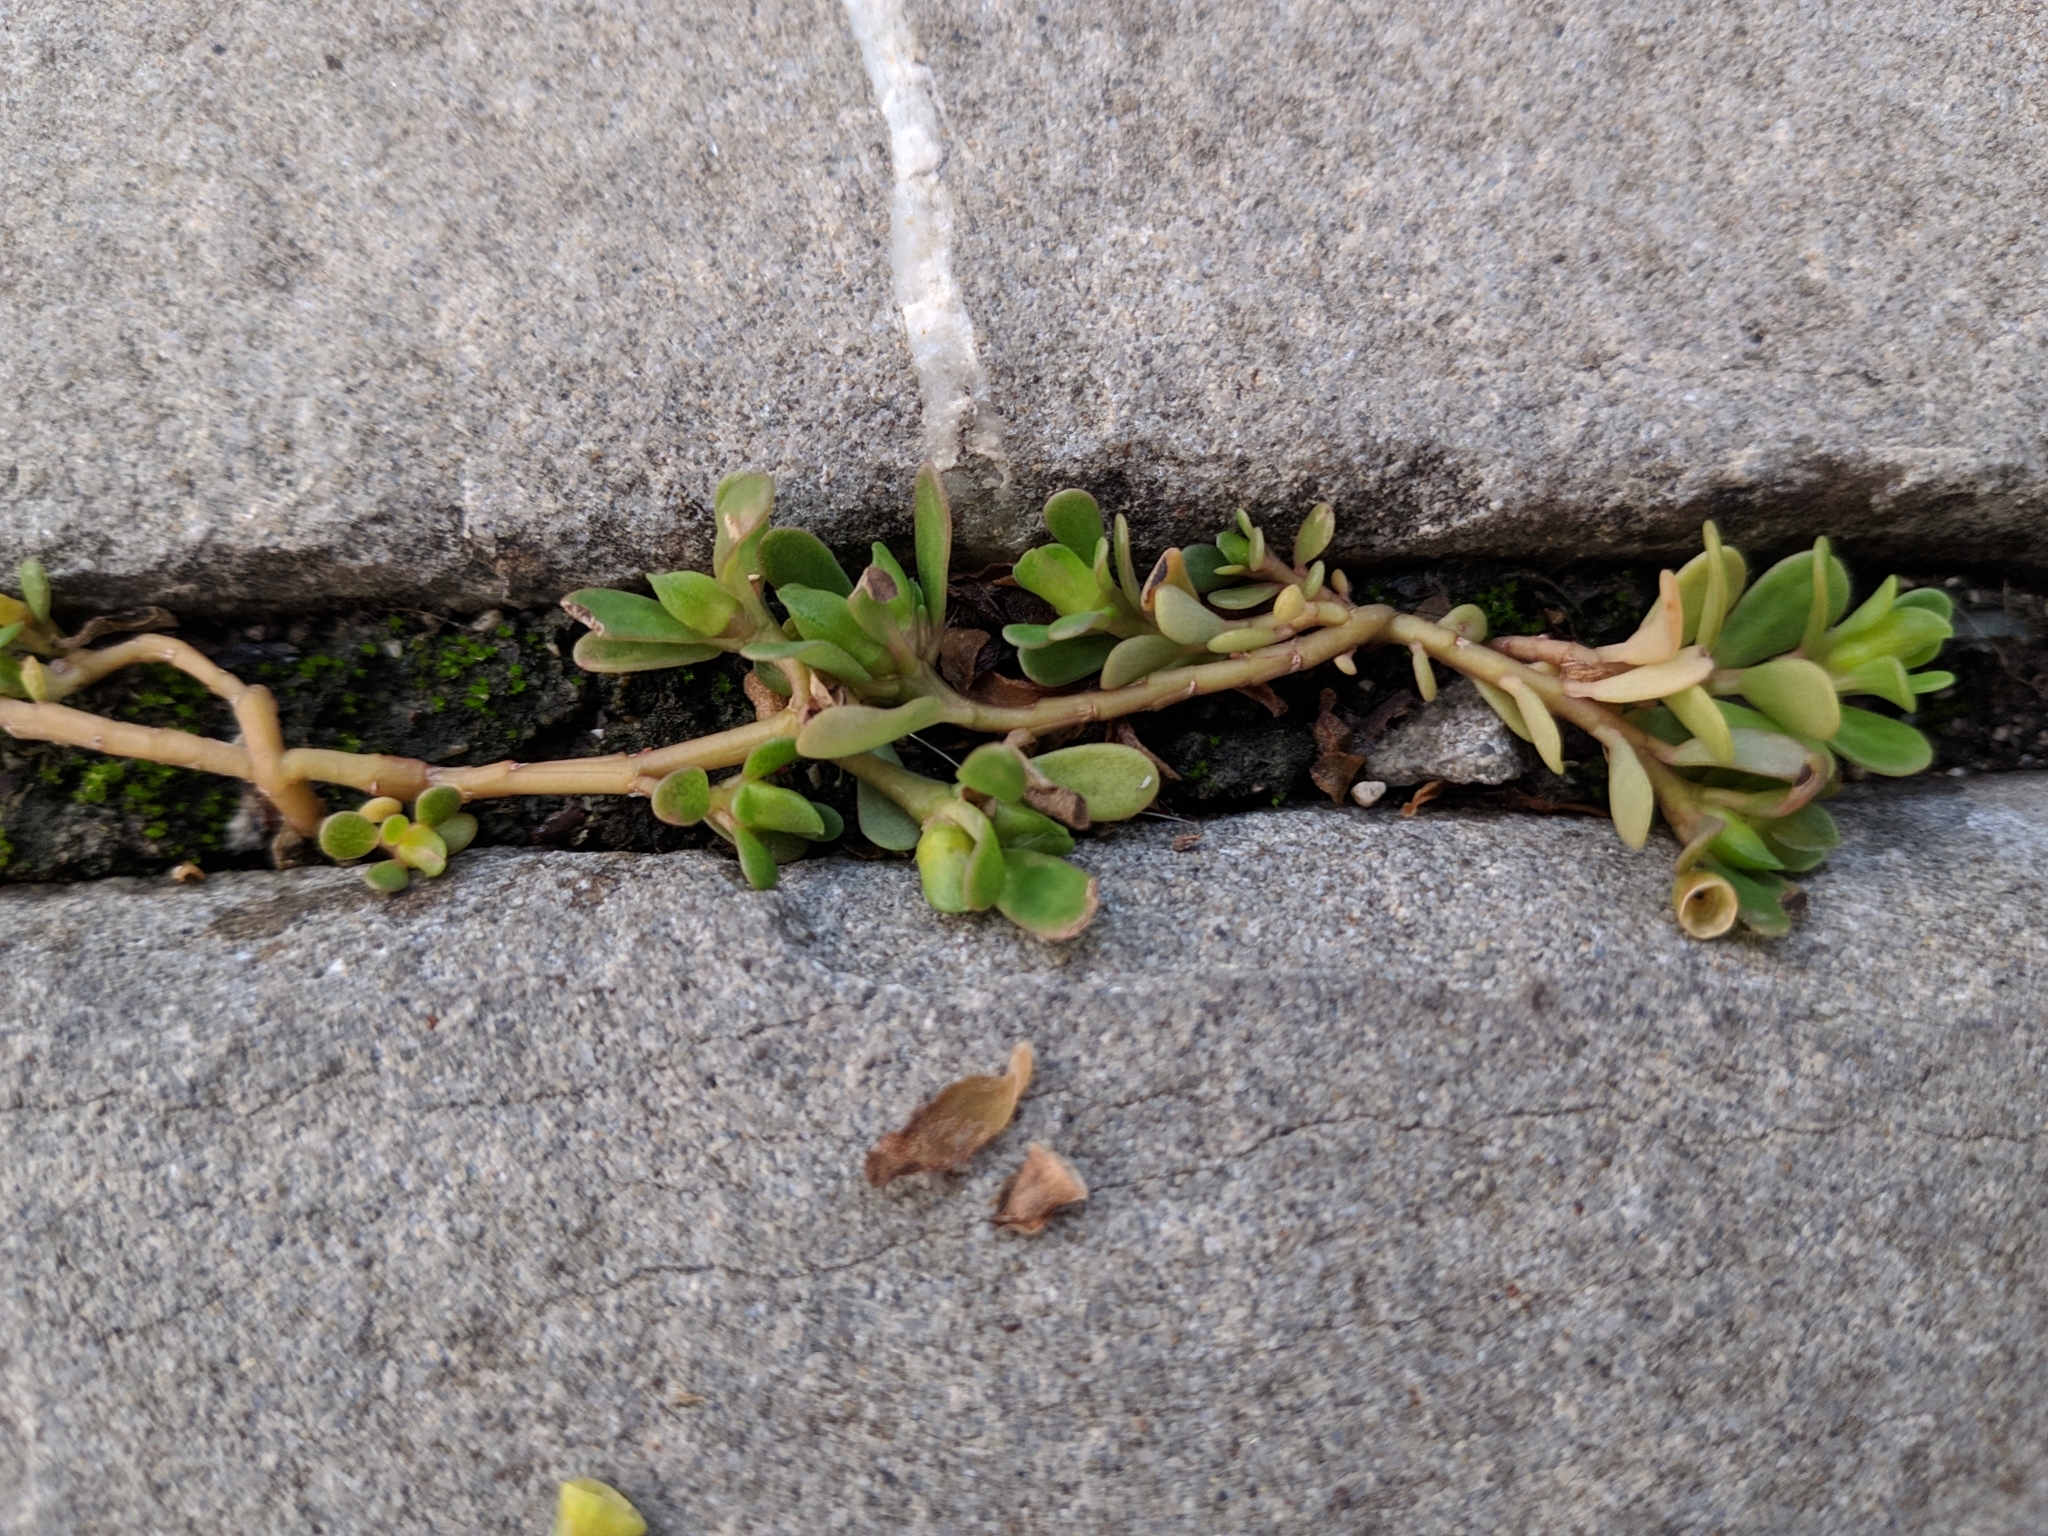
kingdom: Plantae
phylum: Tracheophyta
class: Magnoliopsida
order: Caryophyllales
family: Portulacaceae
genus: Portulaca
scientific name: Portulaca oleracea
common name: Common purslane
